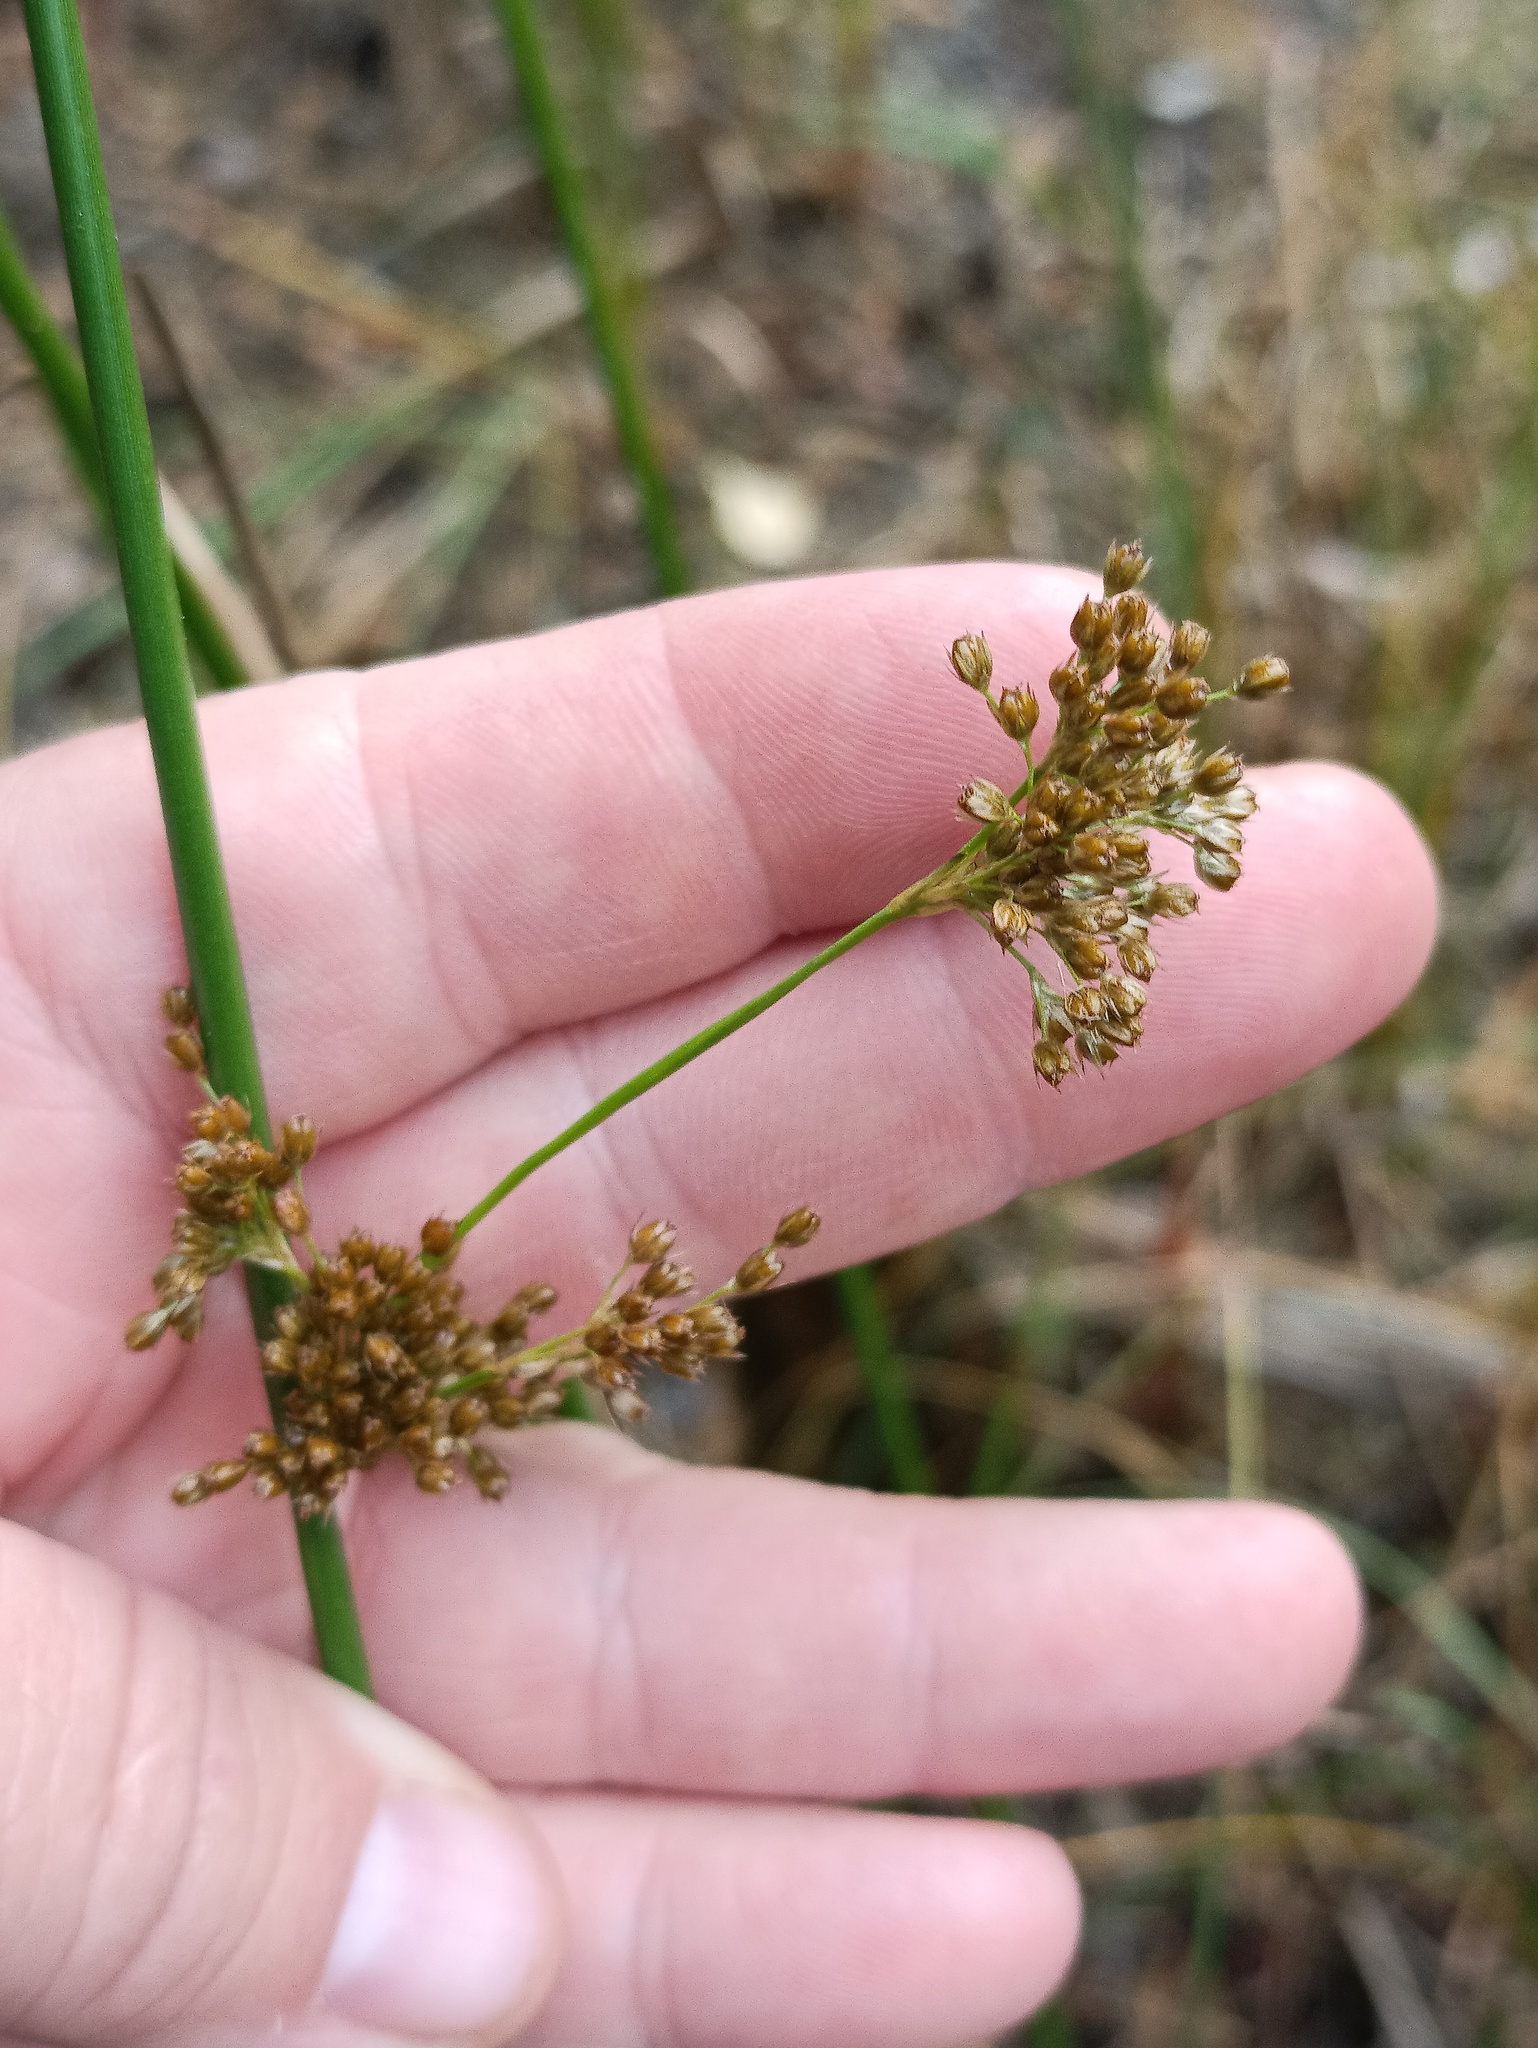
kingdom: Plantae
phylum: Tracheophyta
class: Liliopsida
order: Poales
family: Juncaceae
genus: Juncus
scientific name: Juncus effusus
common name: Soft rush
